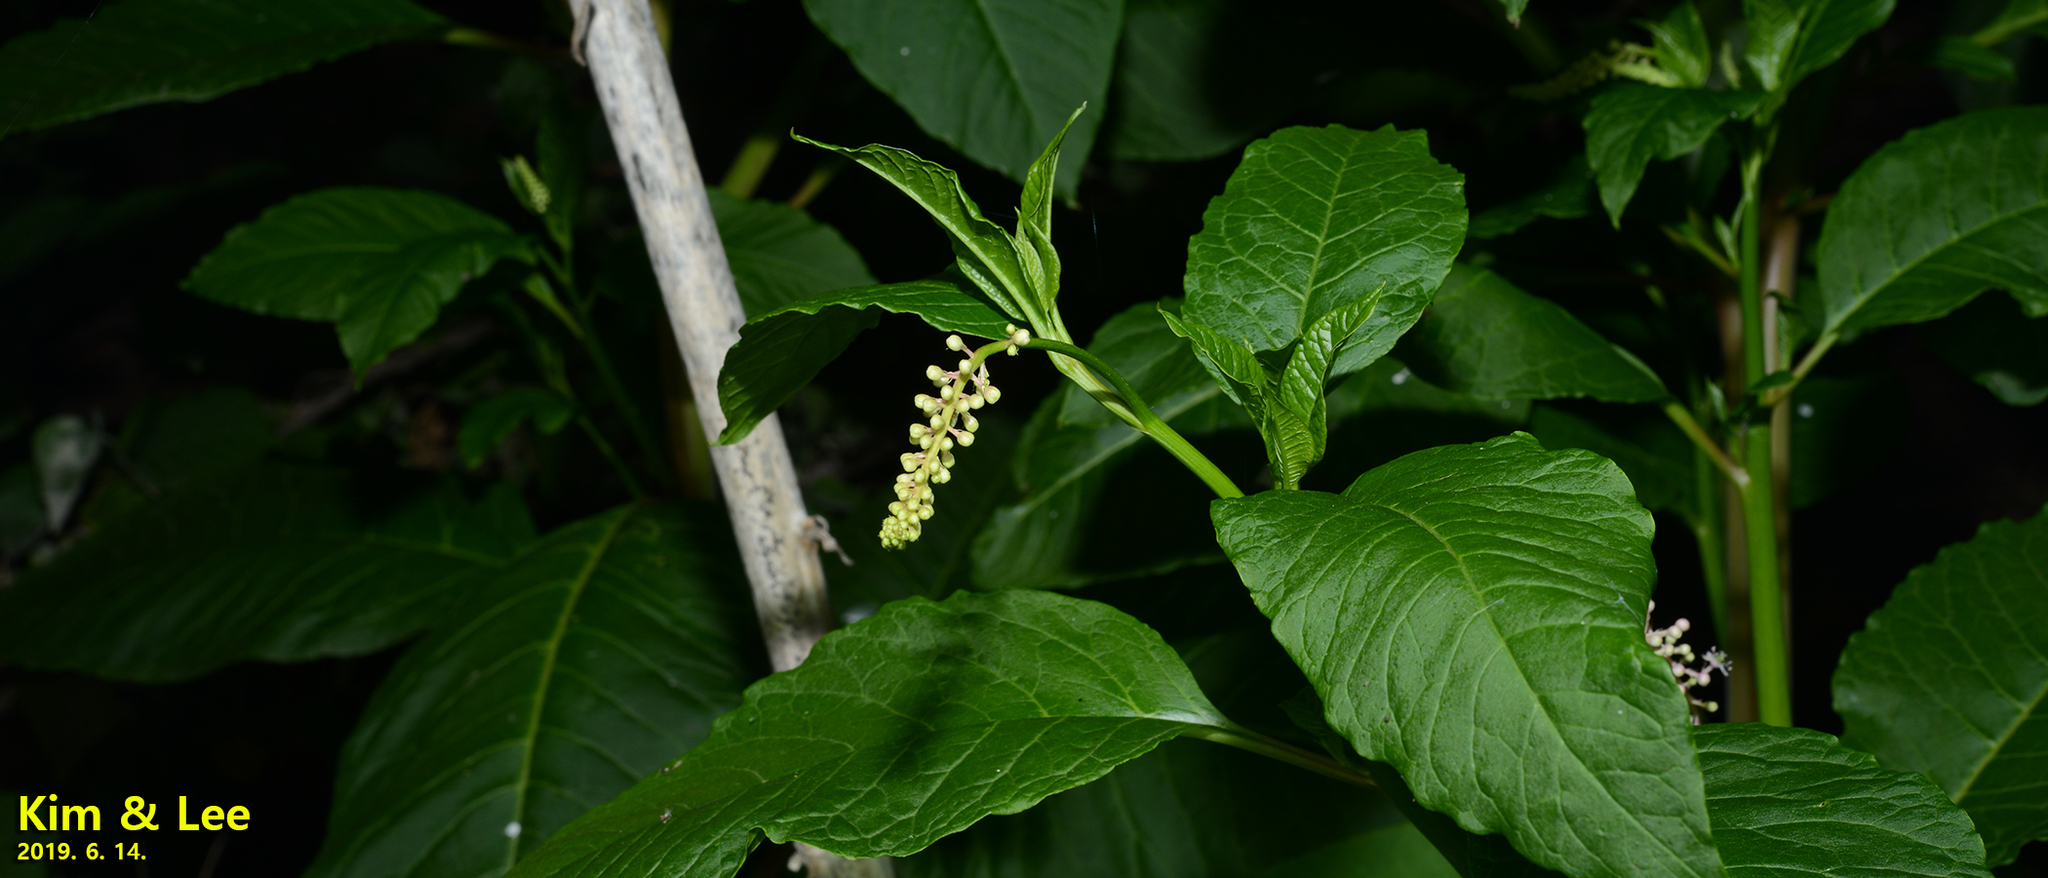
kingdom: Plantae
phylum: Tracheophyta
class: Magnoliopsida
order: Caryophyllales
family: Phytolaccaceae
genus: Phytolacca
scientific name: Phytolacca americana
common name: American pokeweed
